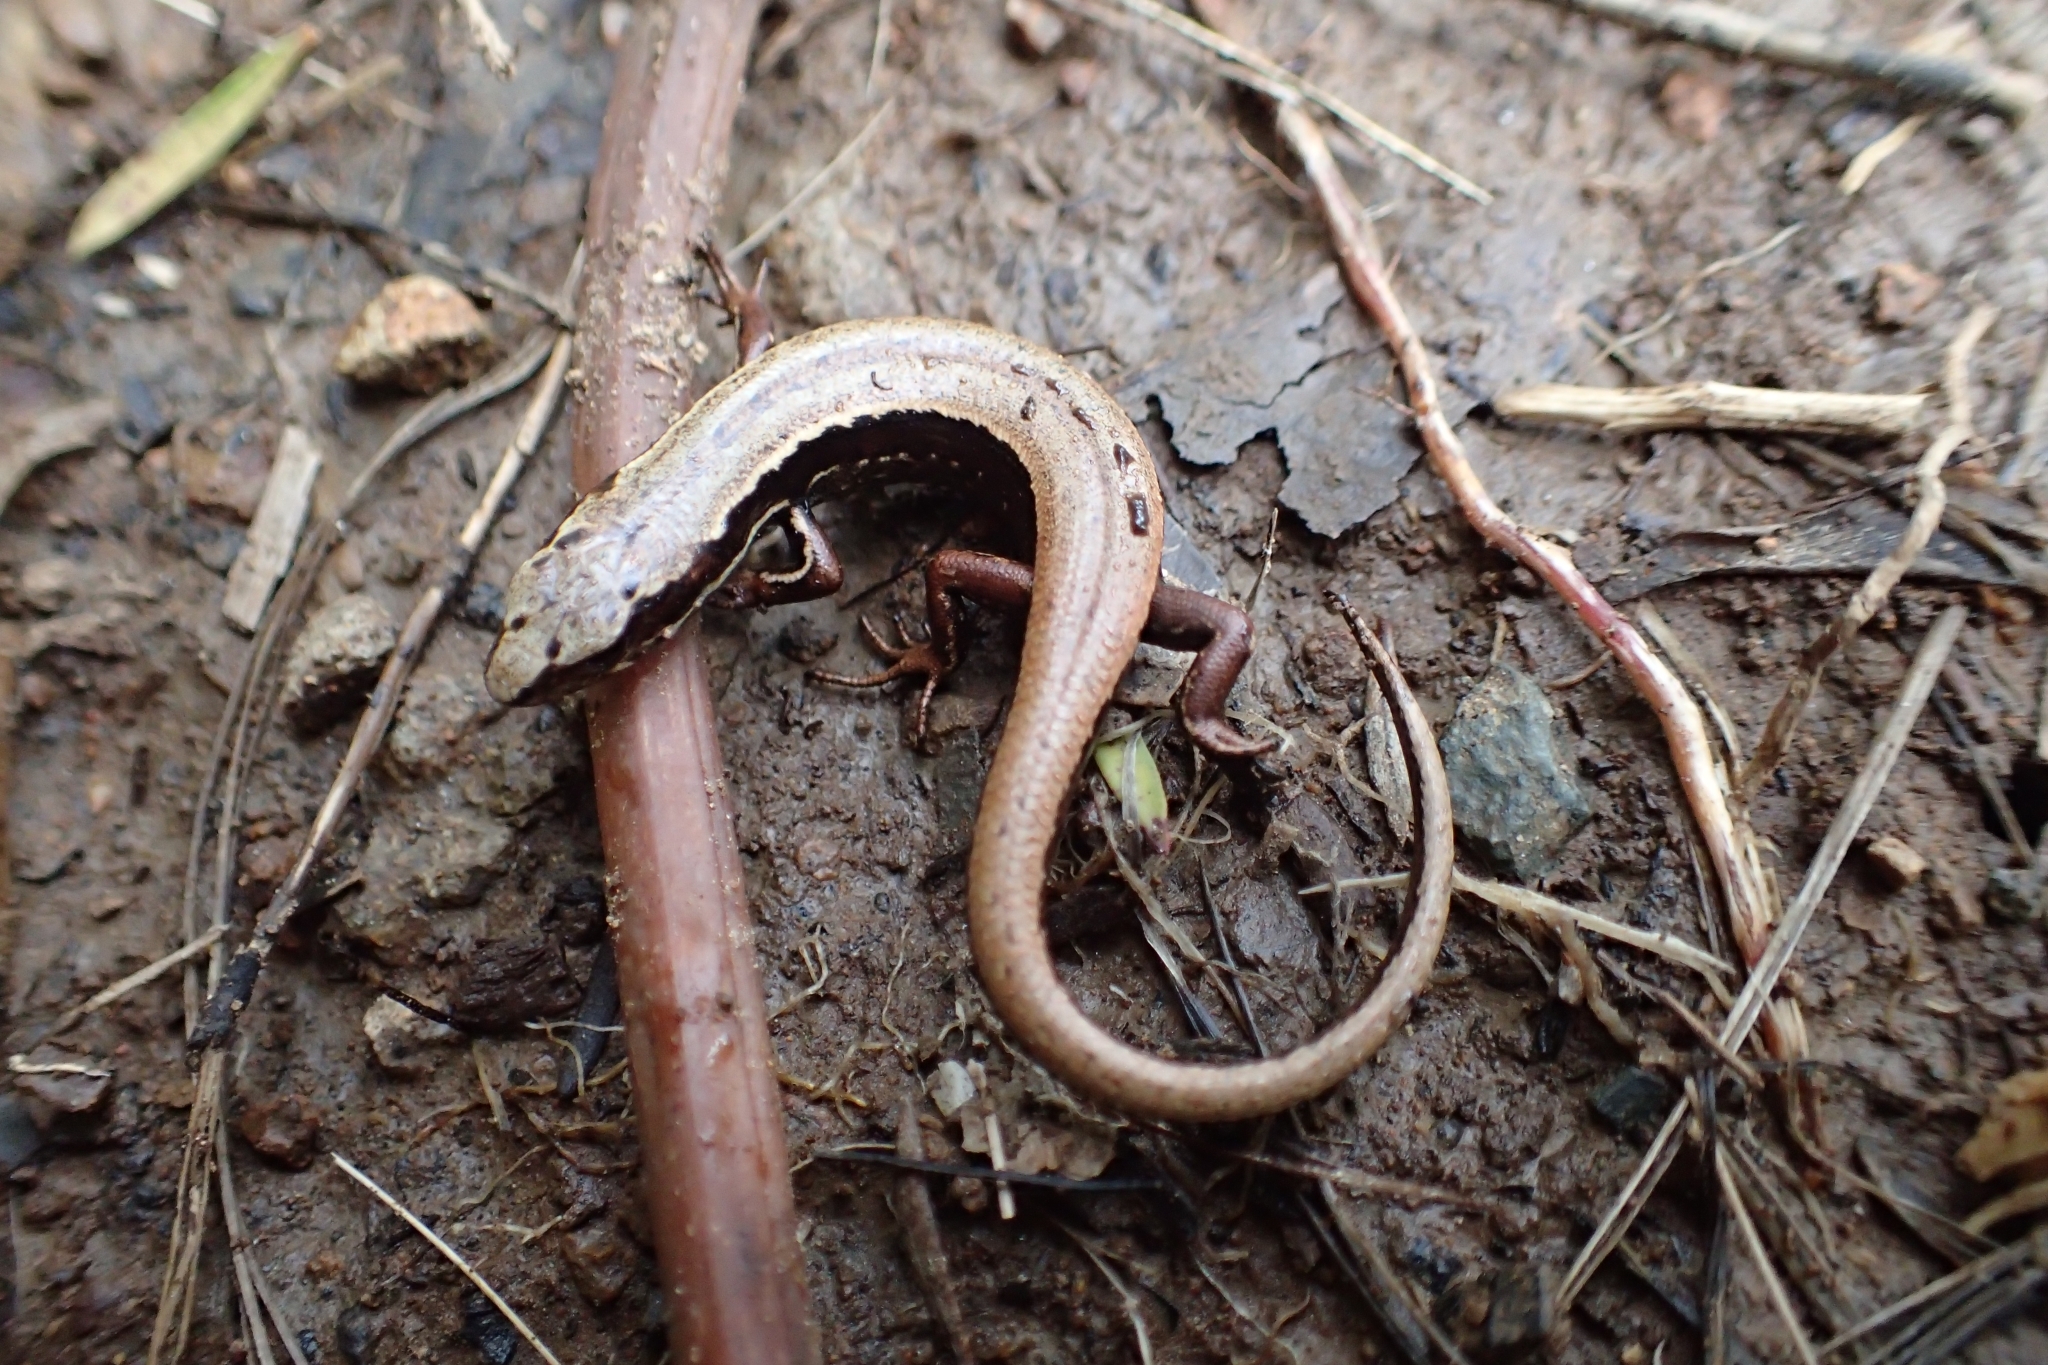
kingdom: Animalia
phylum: Chordata
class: Squamata
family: Scincidae
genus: Oligosoma
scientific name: Oligosoma kakerakau
